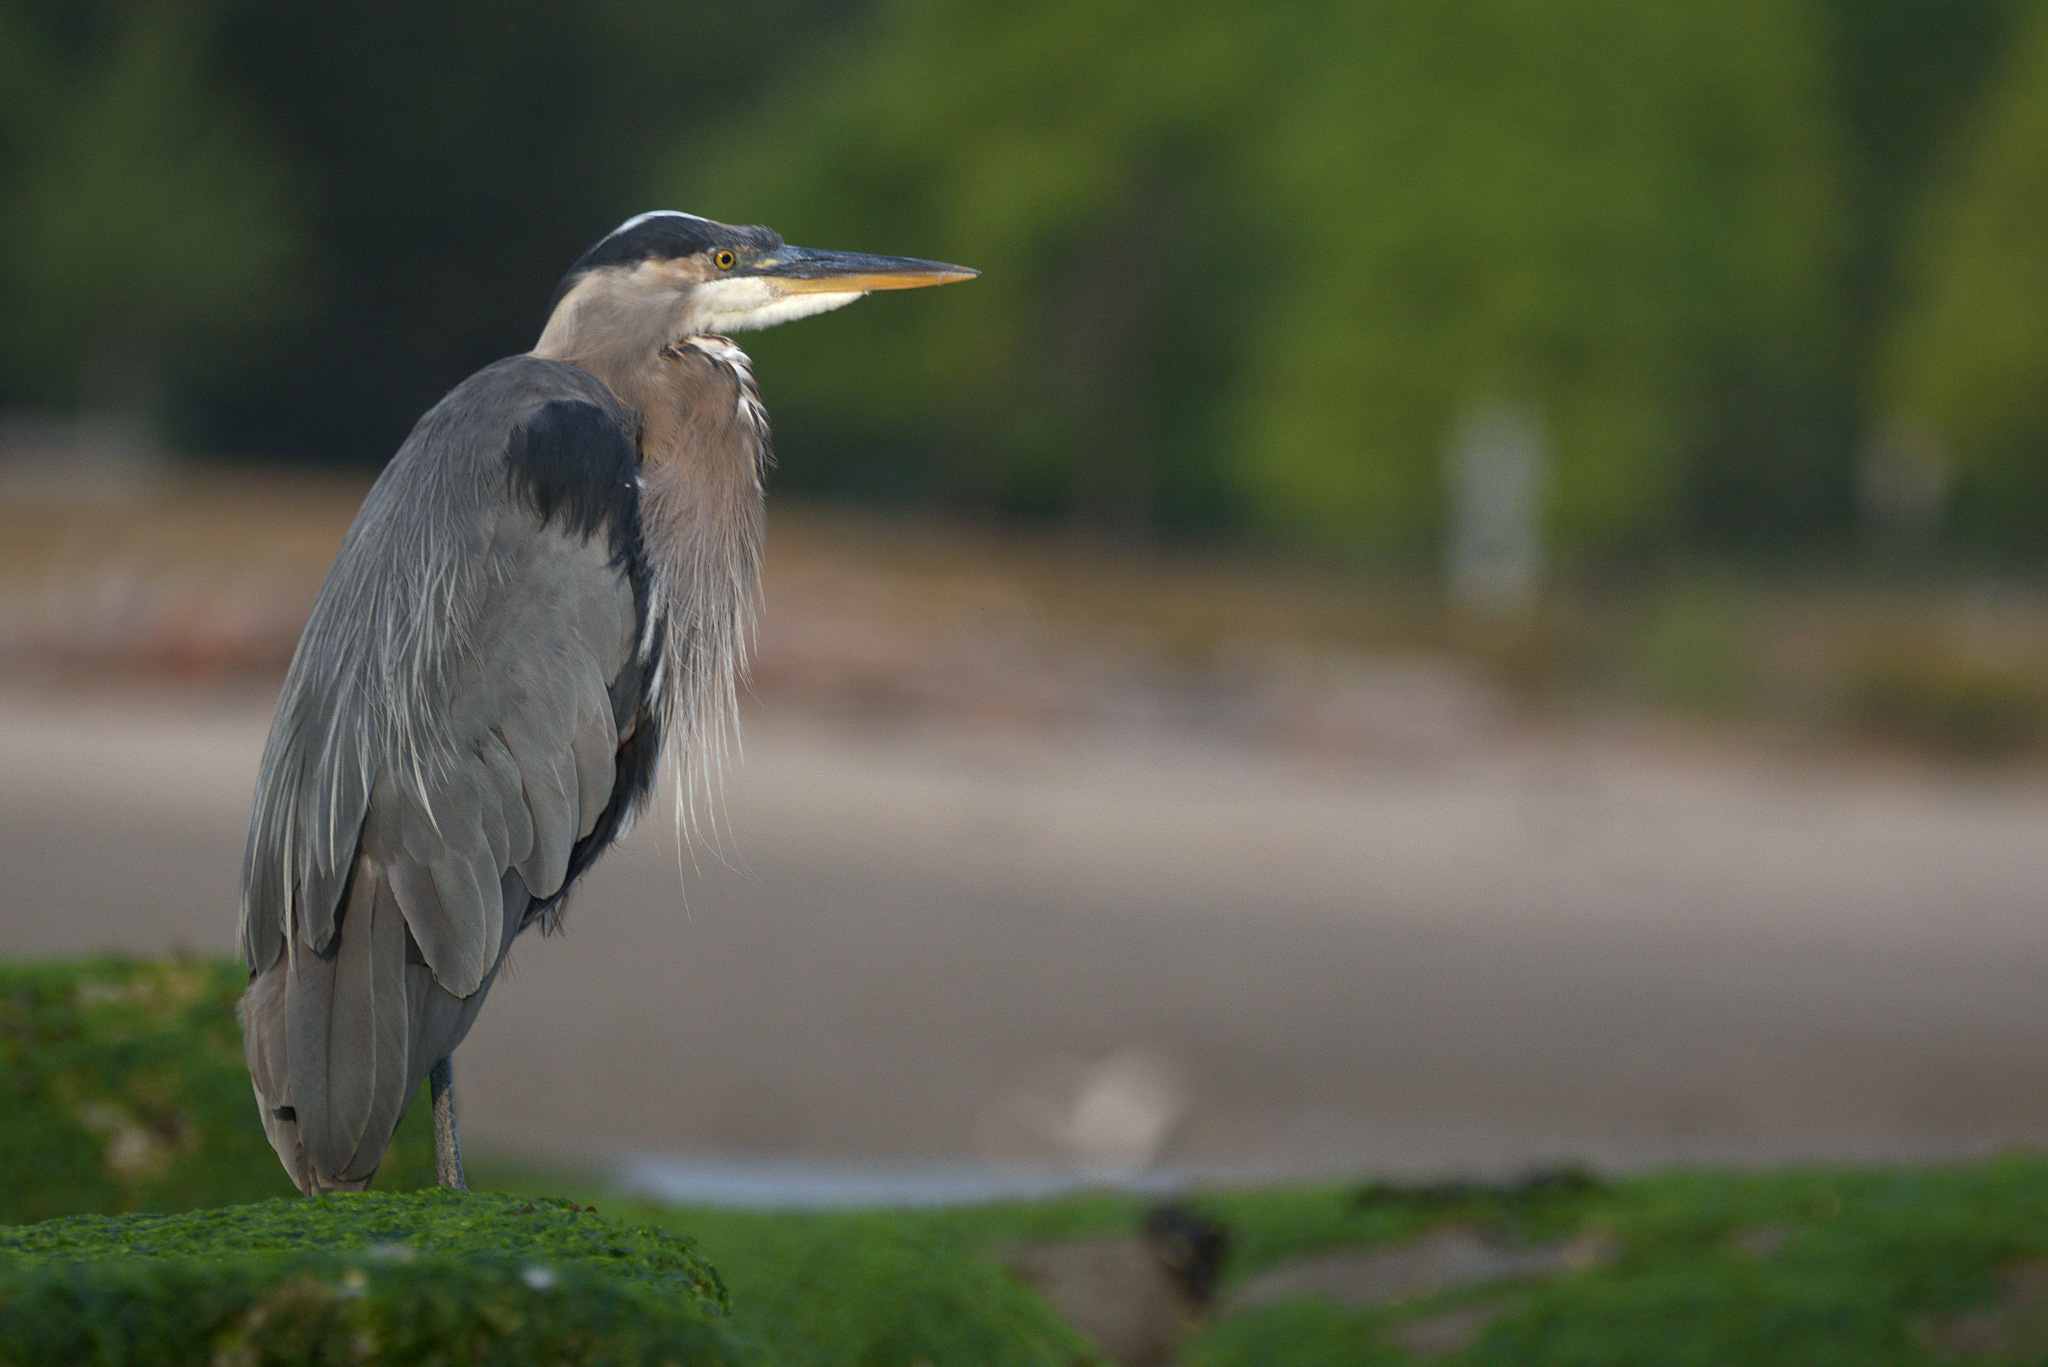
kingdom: Animalia
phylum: Chordata
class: Aves
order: Pelecaniformes
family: Ardeidae
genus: Ardea
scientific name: Ardea herodias
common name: Great blue heron
